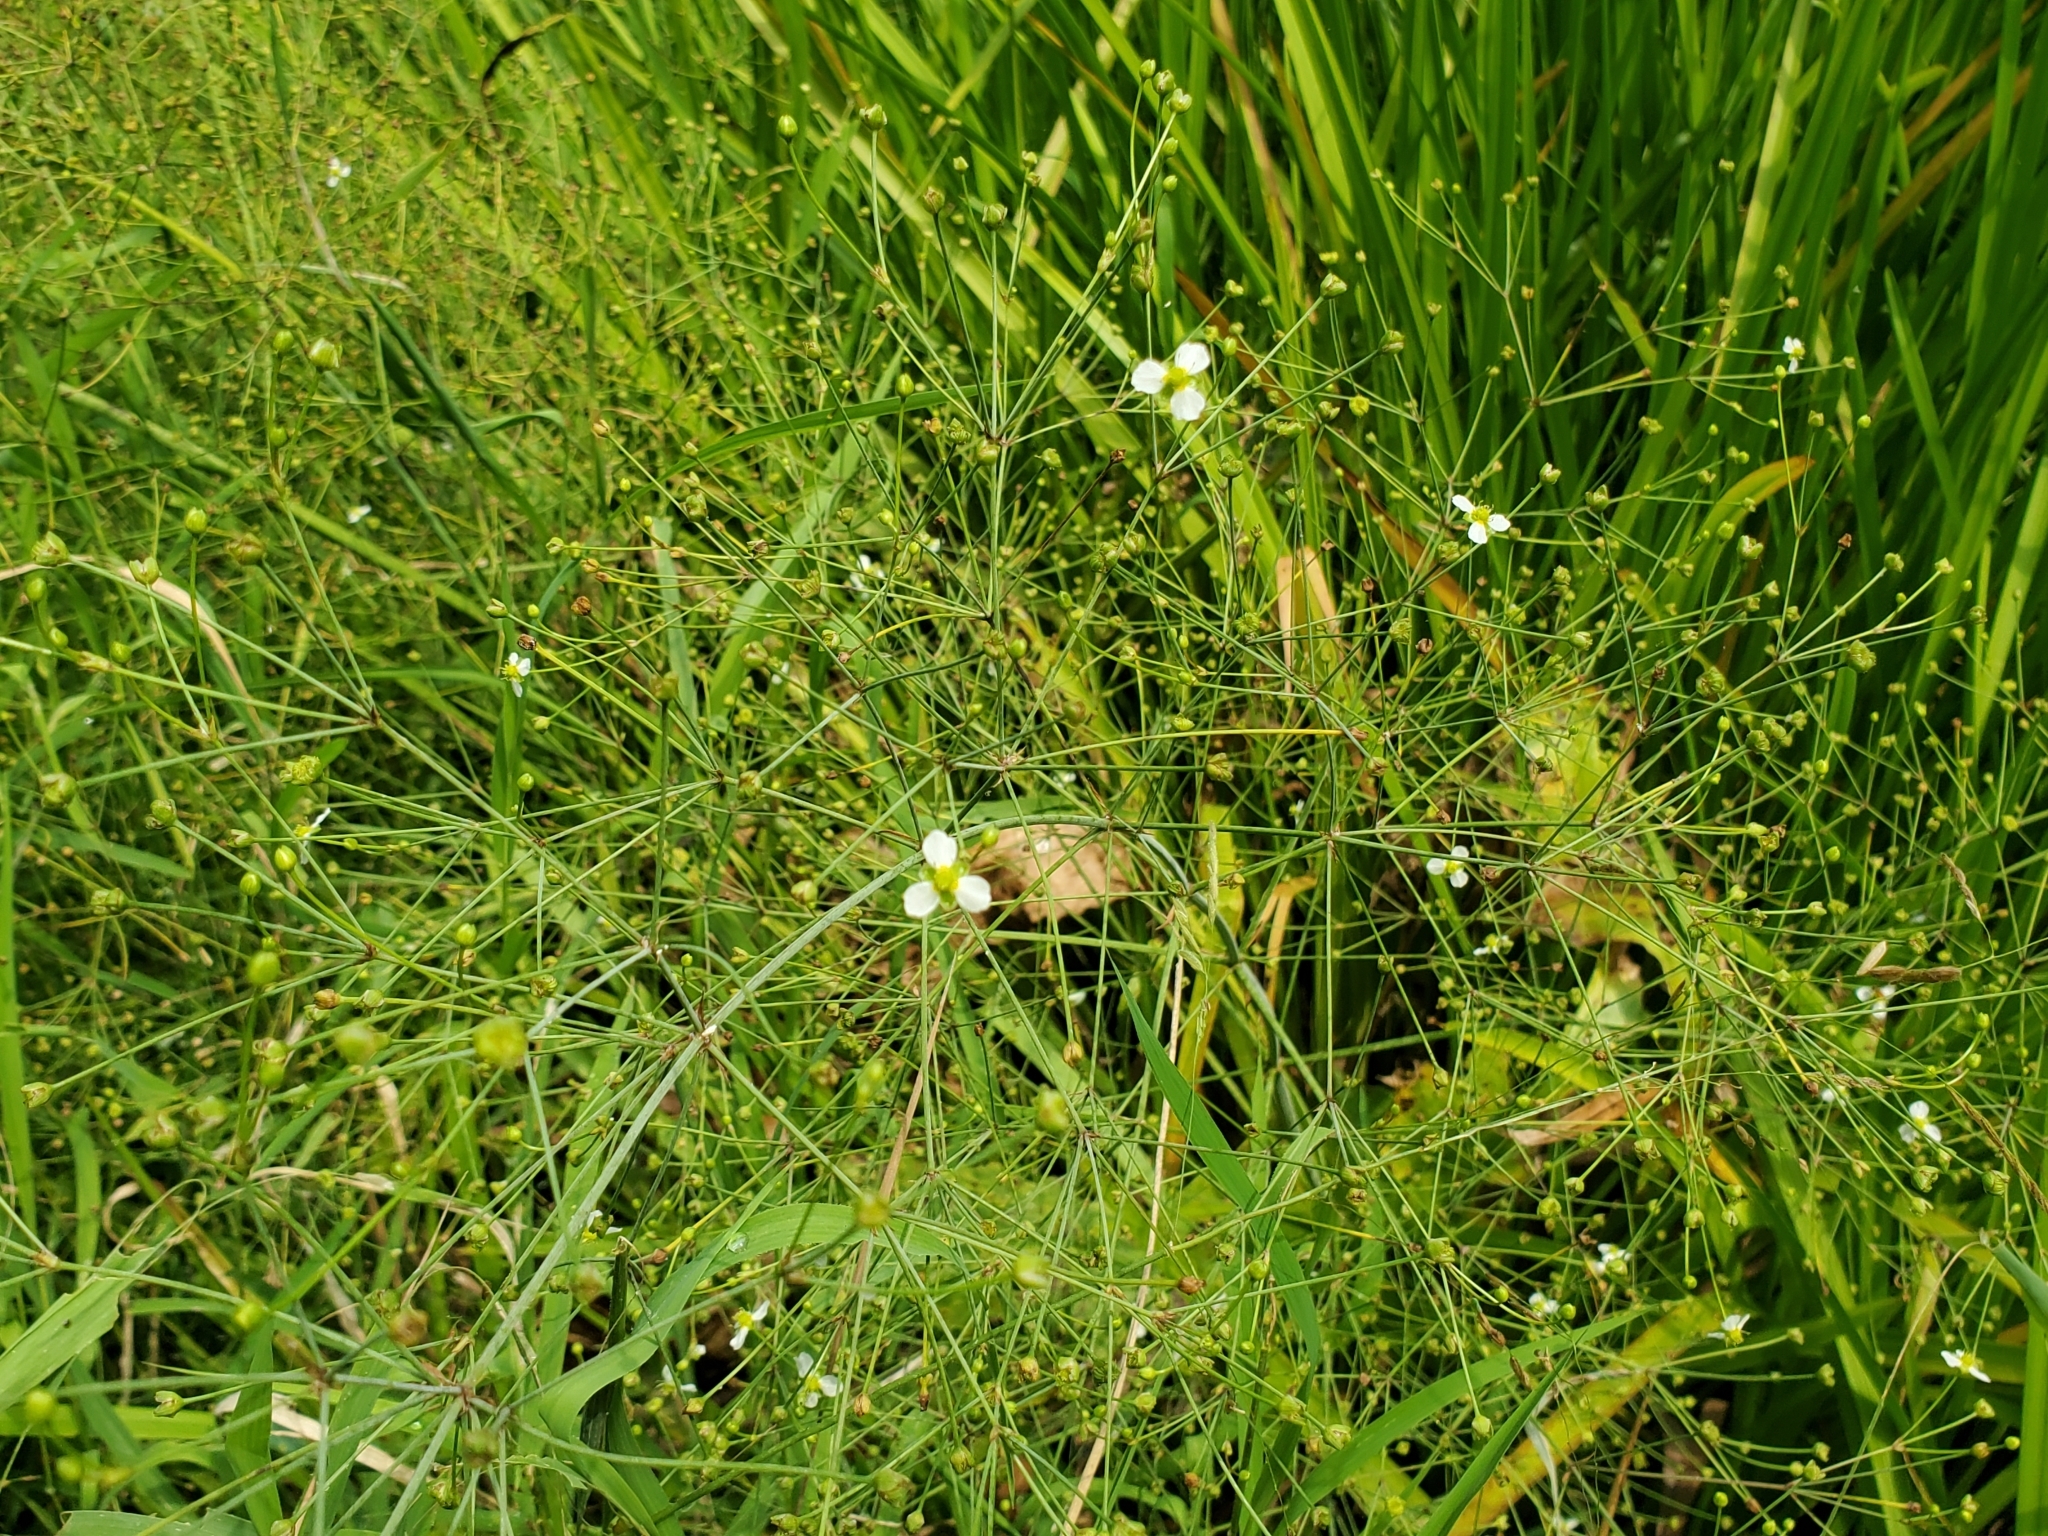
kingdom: Plantae
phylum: Tracheophyta
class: Liliopsida
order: Alismatales
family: Alismataceae
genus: Alisma
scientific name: Alisma subcordatum
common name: Southern water-plantain
